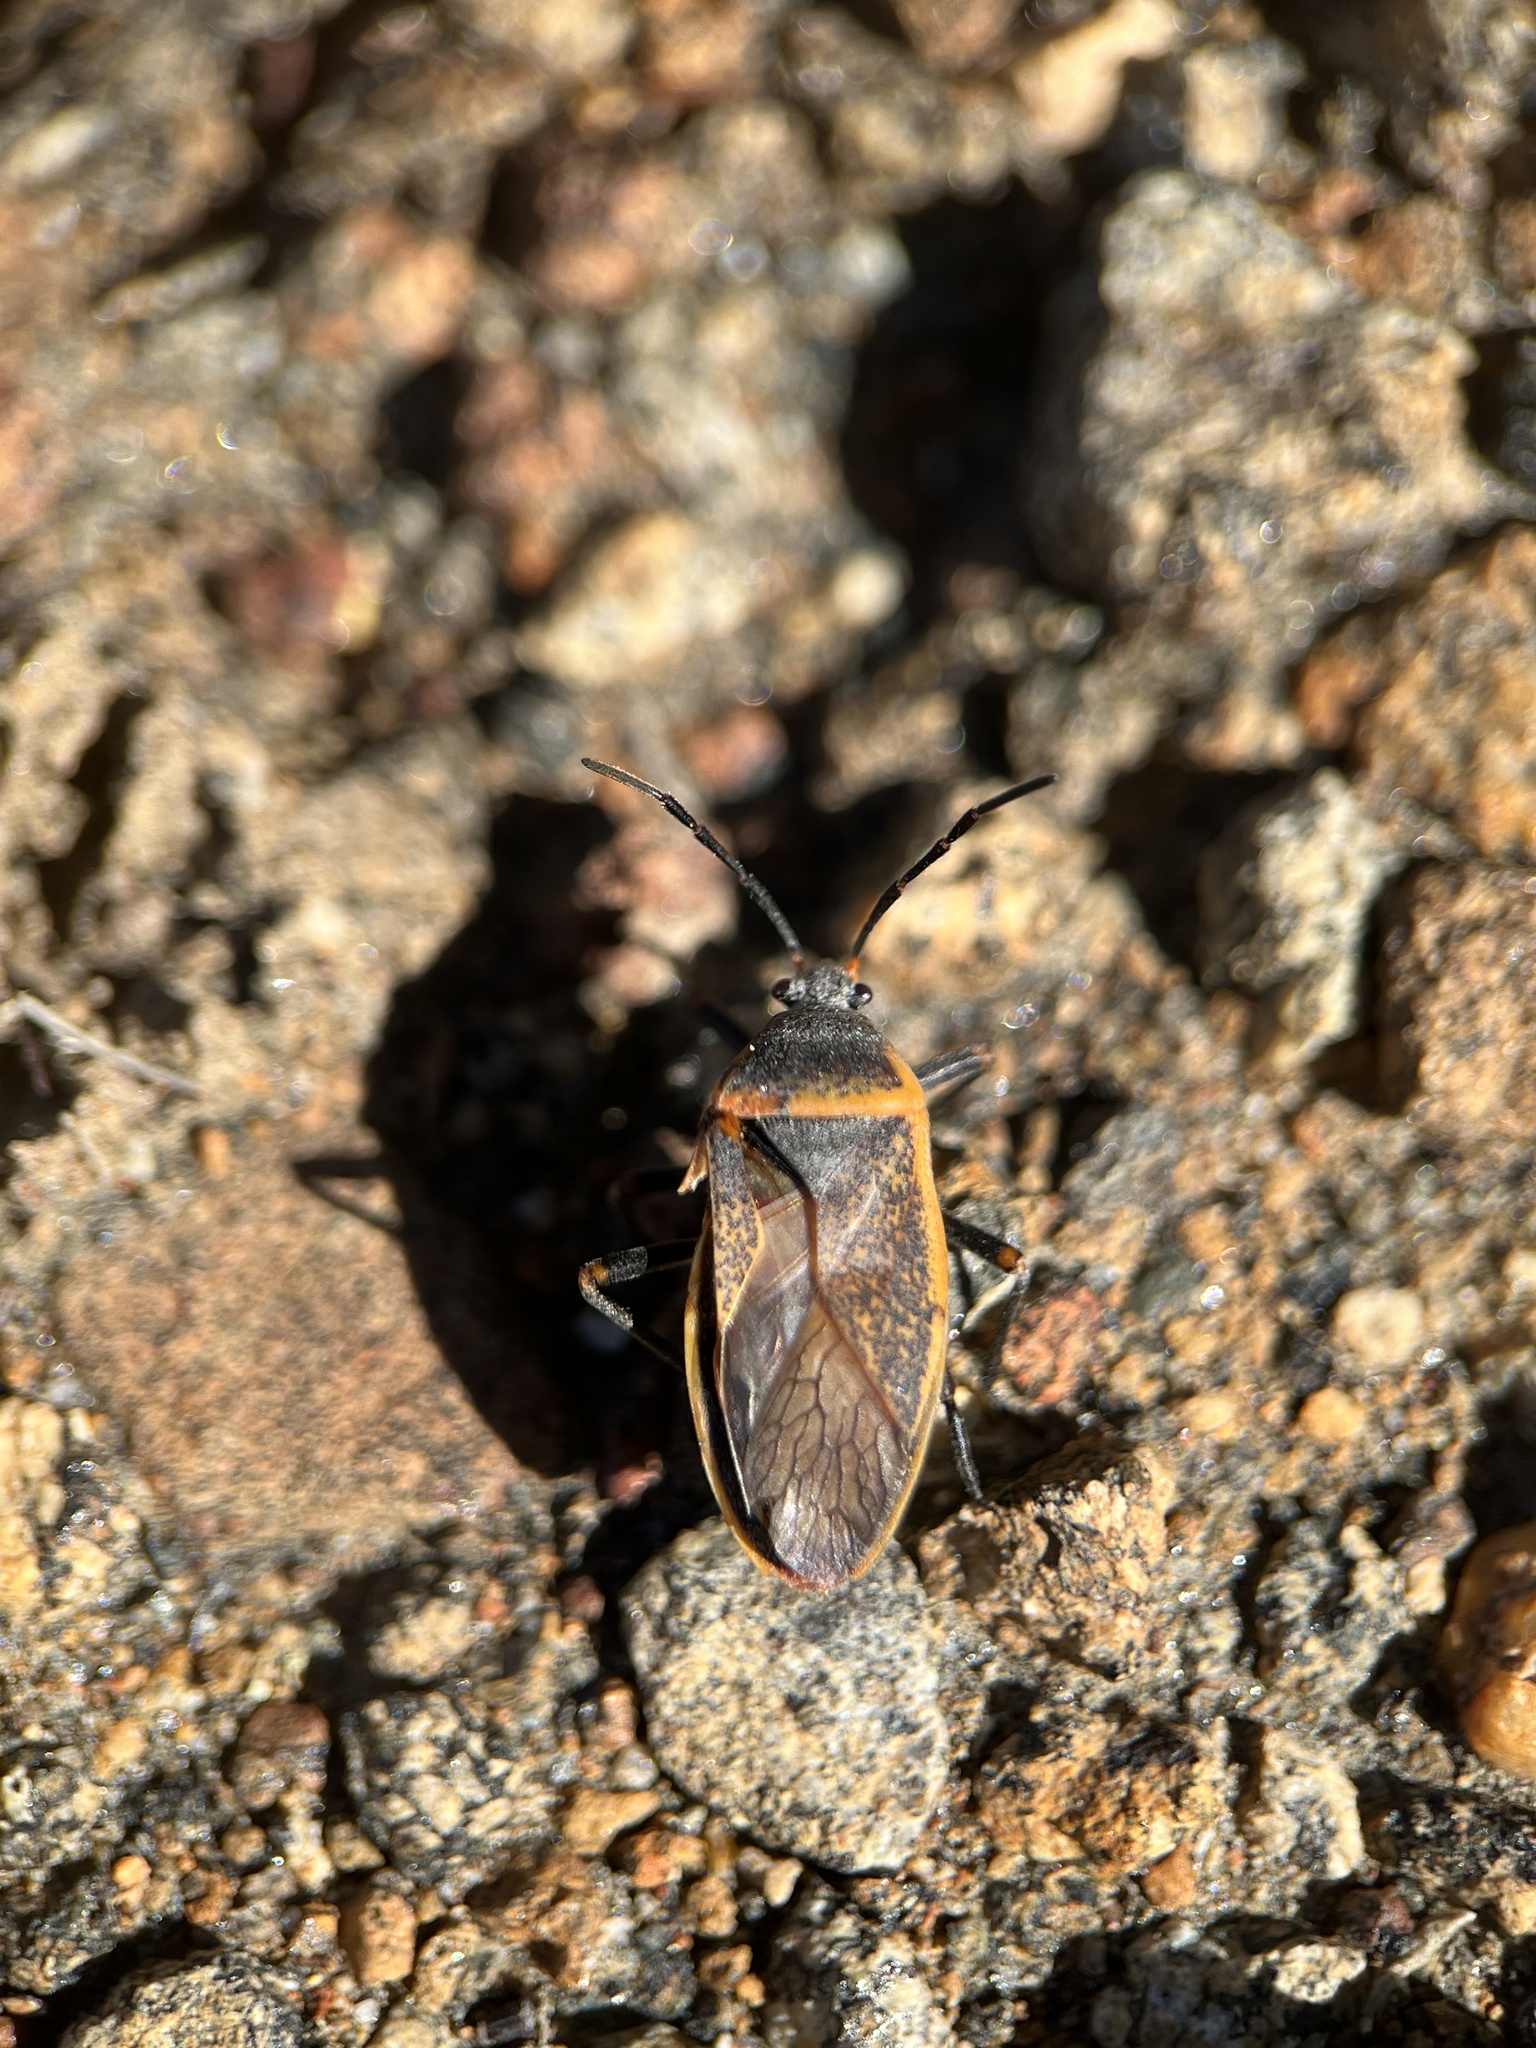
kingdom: Animalia
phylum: Arthropoda
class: Insecta
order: Hemiptera
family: Largidae
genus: Largus
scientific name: Largus californicus
